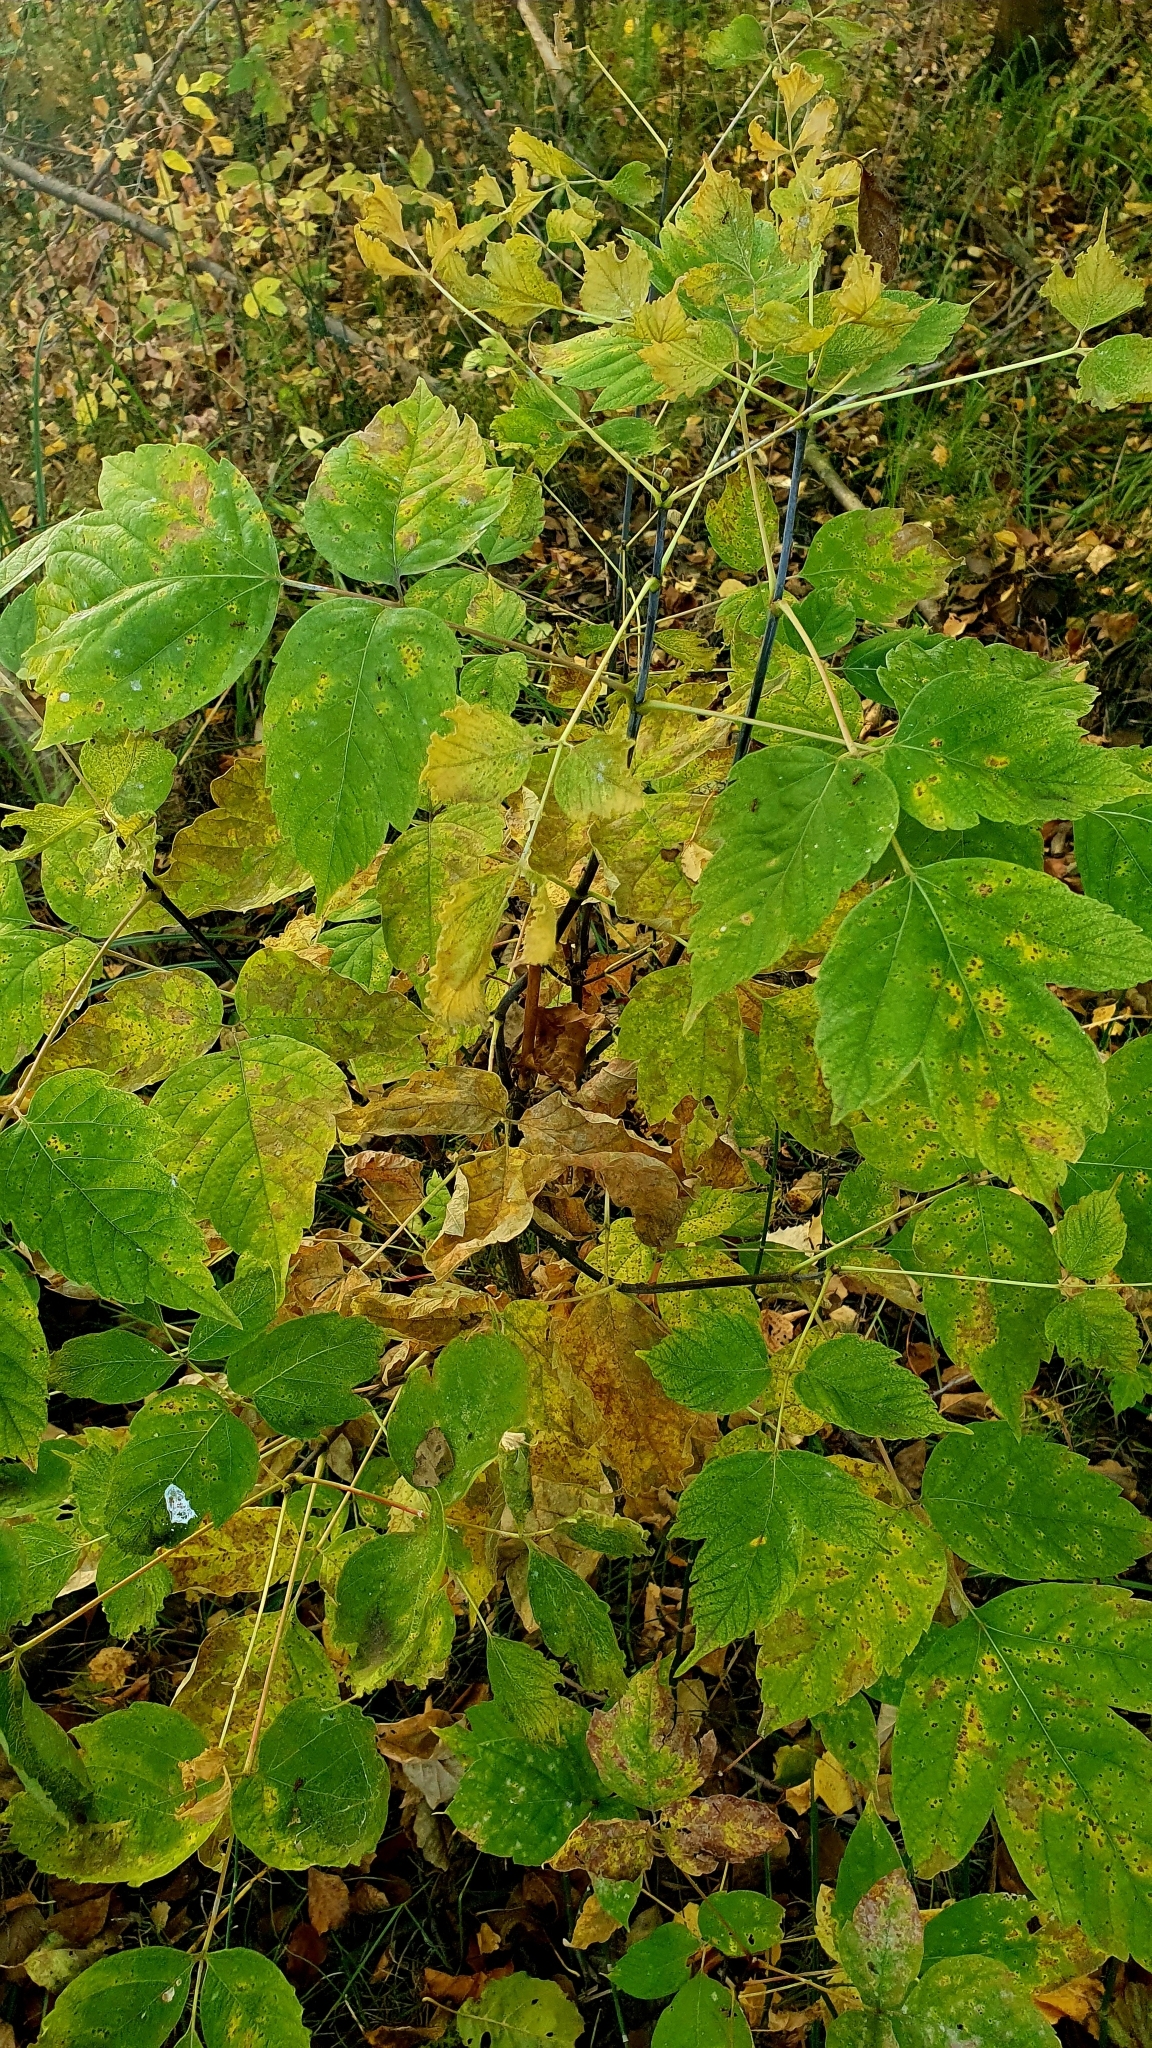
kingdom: Plantae
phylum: Tracheophyta
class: Magnoliopsida
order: Sapindales
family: Sapindaceae
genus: Acer
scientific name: Acer negundo
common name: Ashleaf maple
